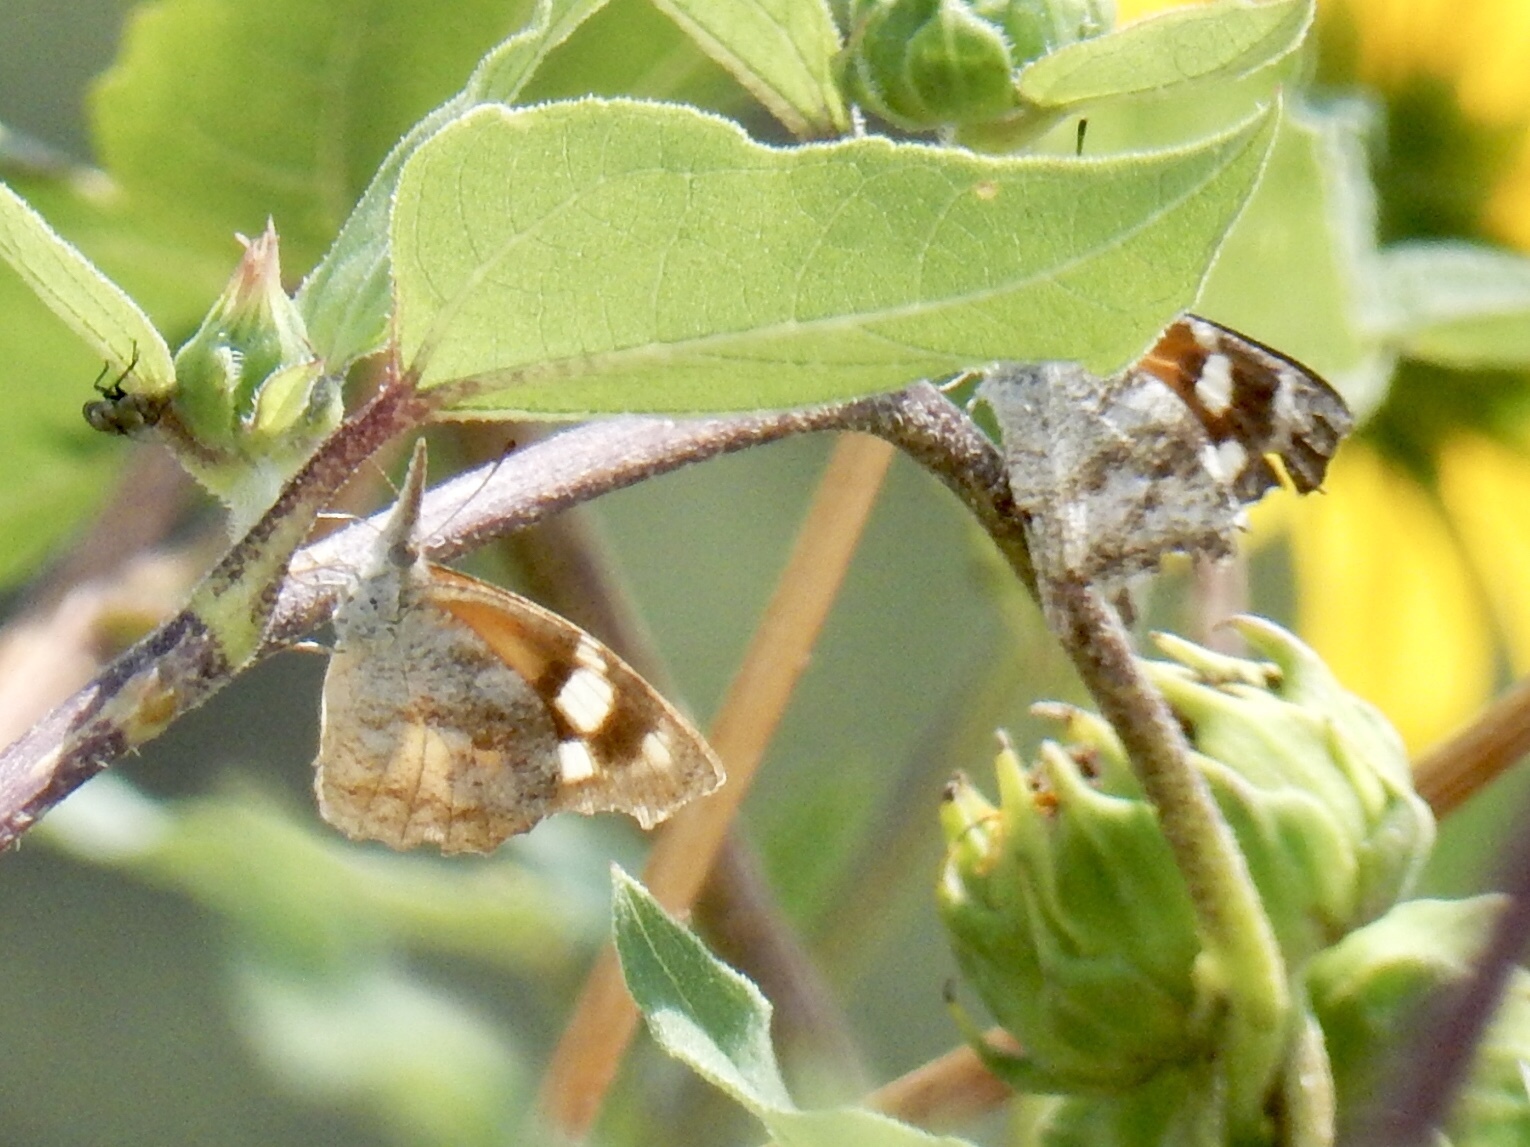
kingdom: Animalia
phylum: Arthropoda
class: Insecta
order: Lepidoptera
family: Nymphalidae
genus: Libytheana
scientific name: Libytheana carinenta
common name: American snout
